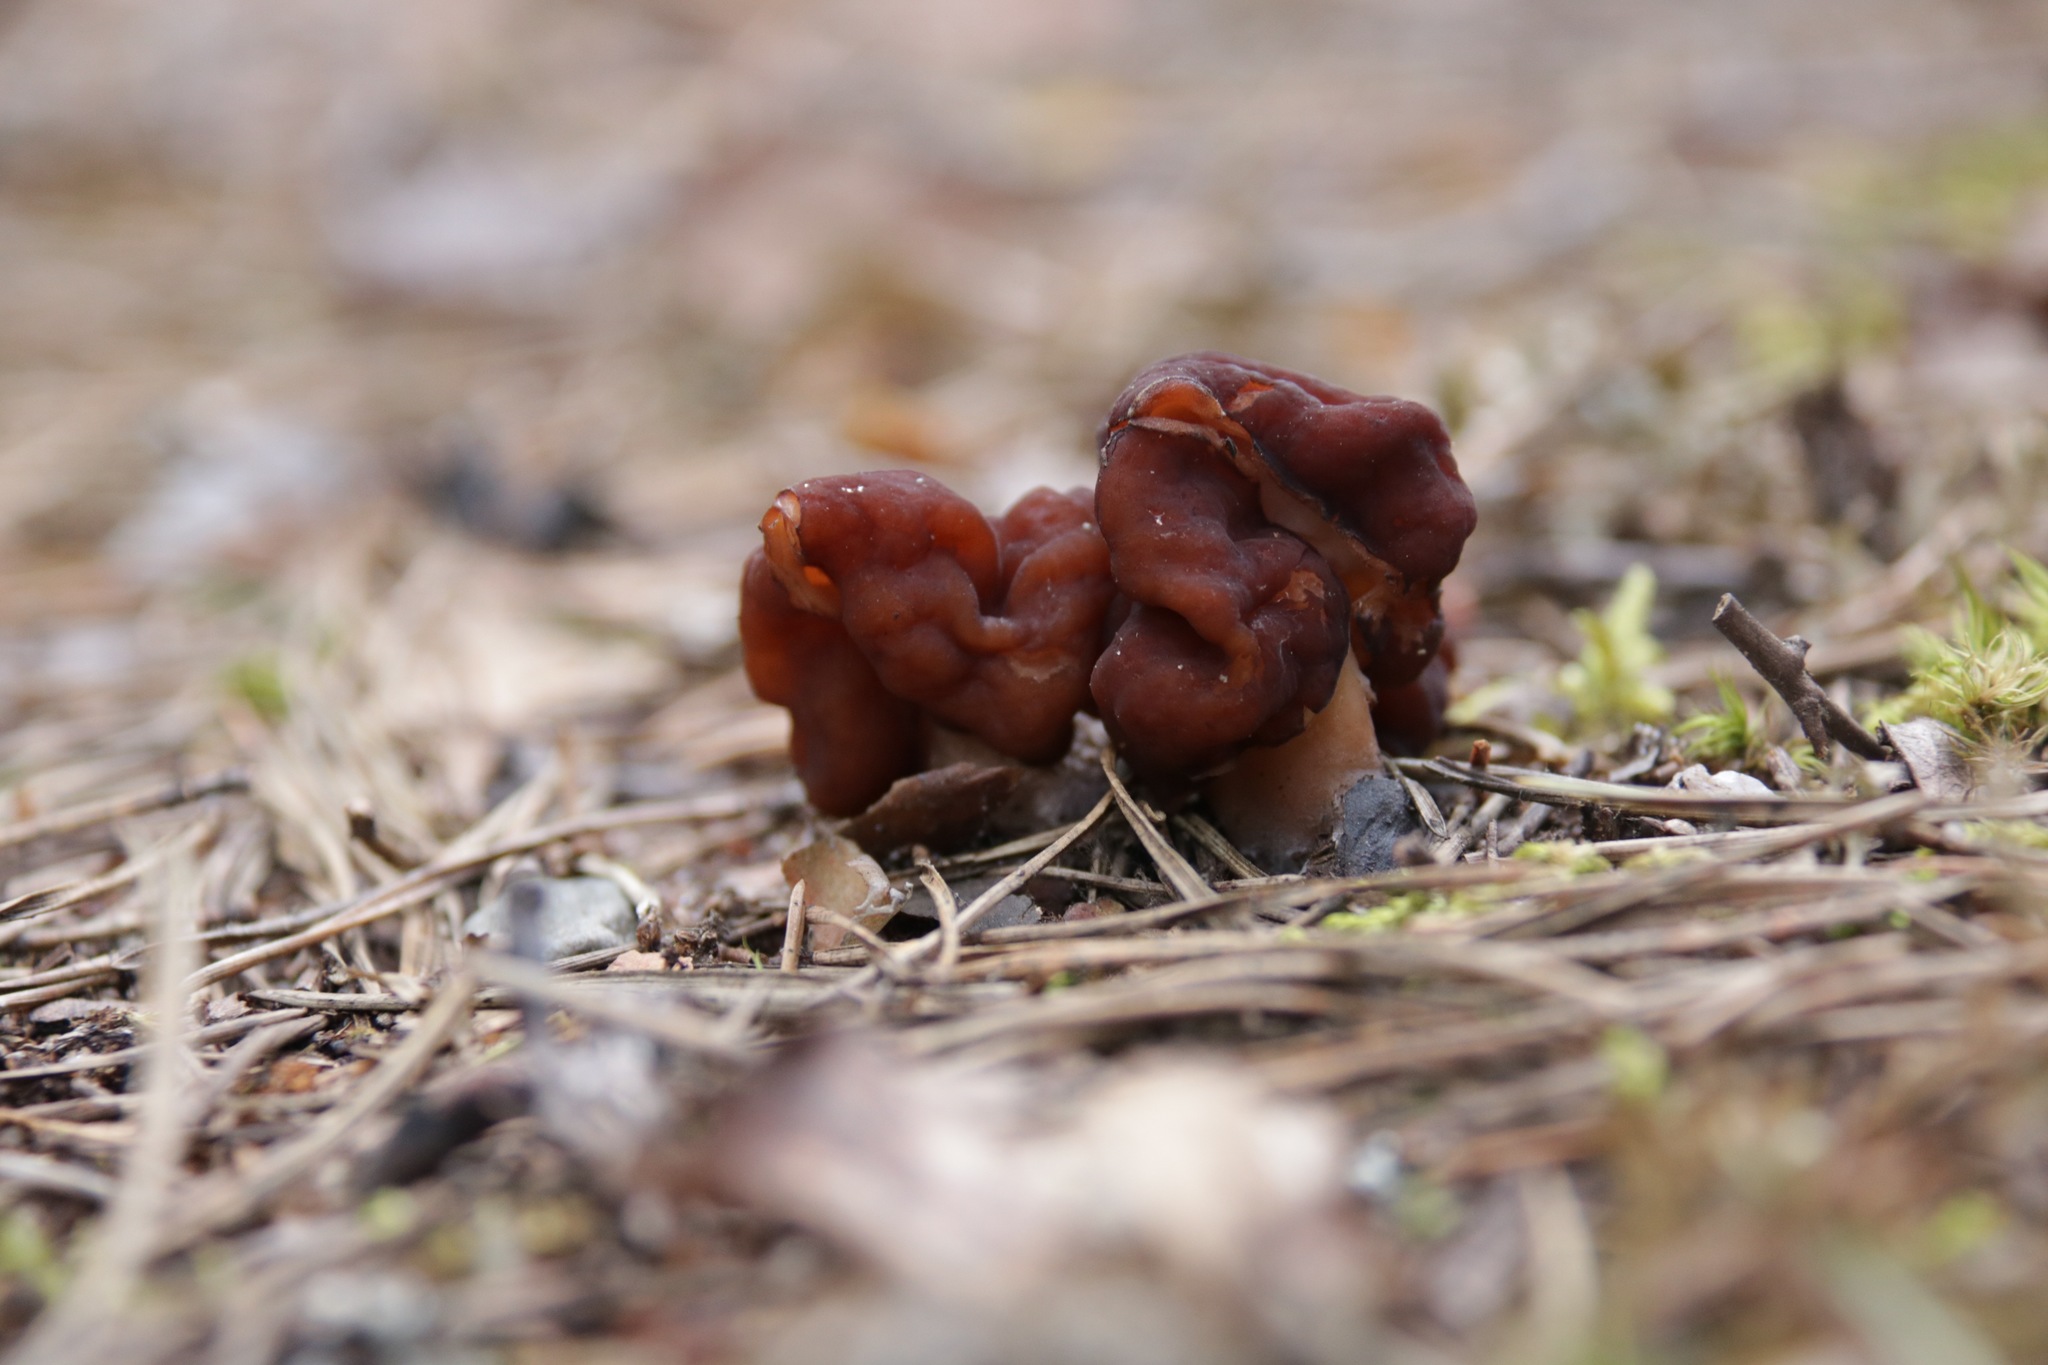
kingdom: Fungi
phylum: Ascomycota
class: Pezizomycetes
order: Pezizales
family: Discinaceae
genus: Gyromitra
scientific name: Gyromitra esculenta
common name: False morel
